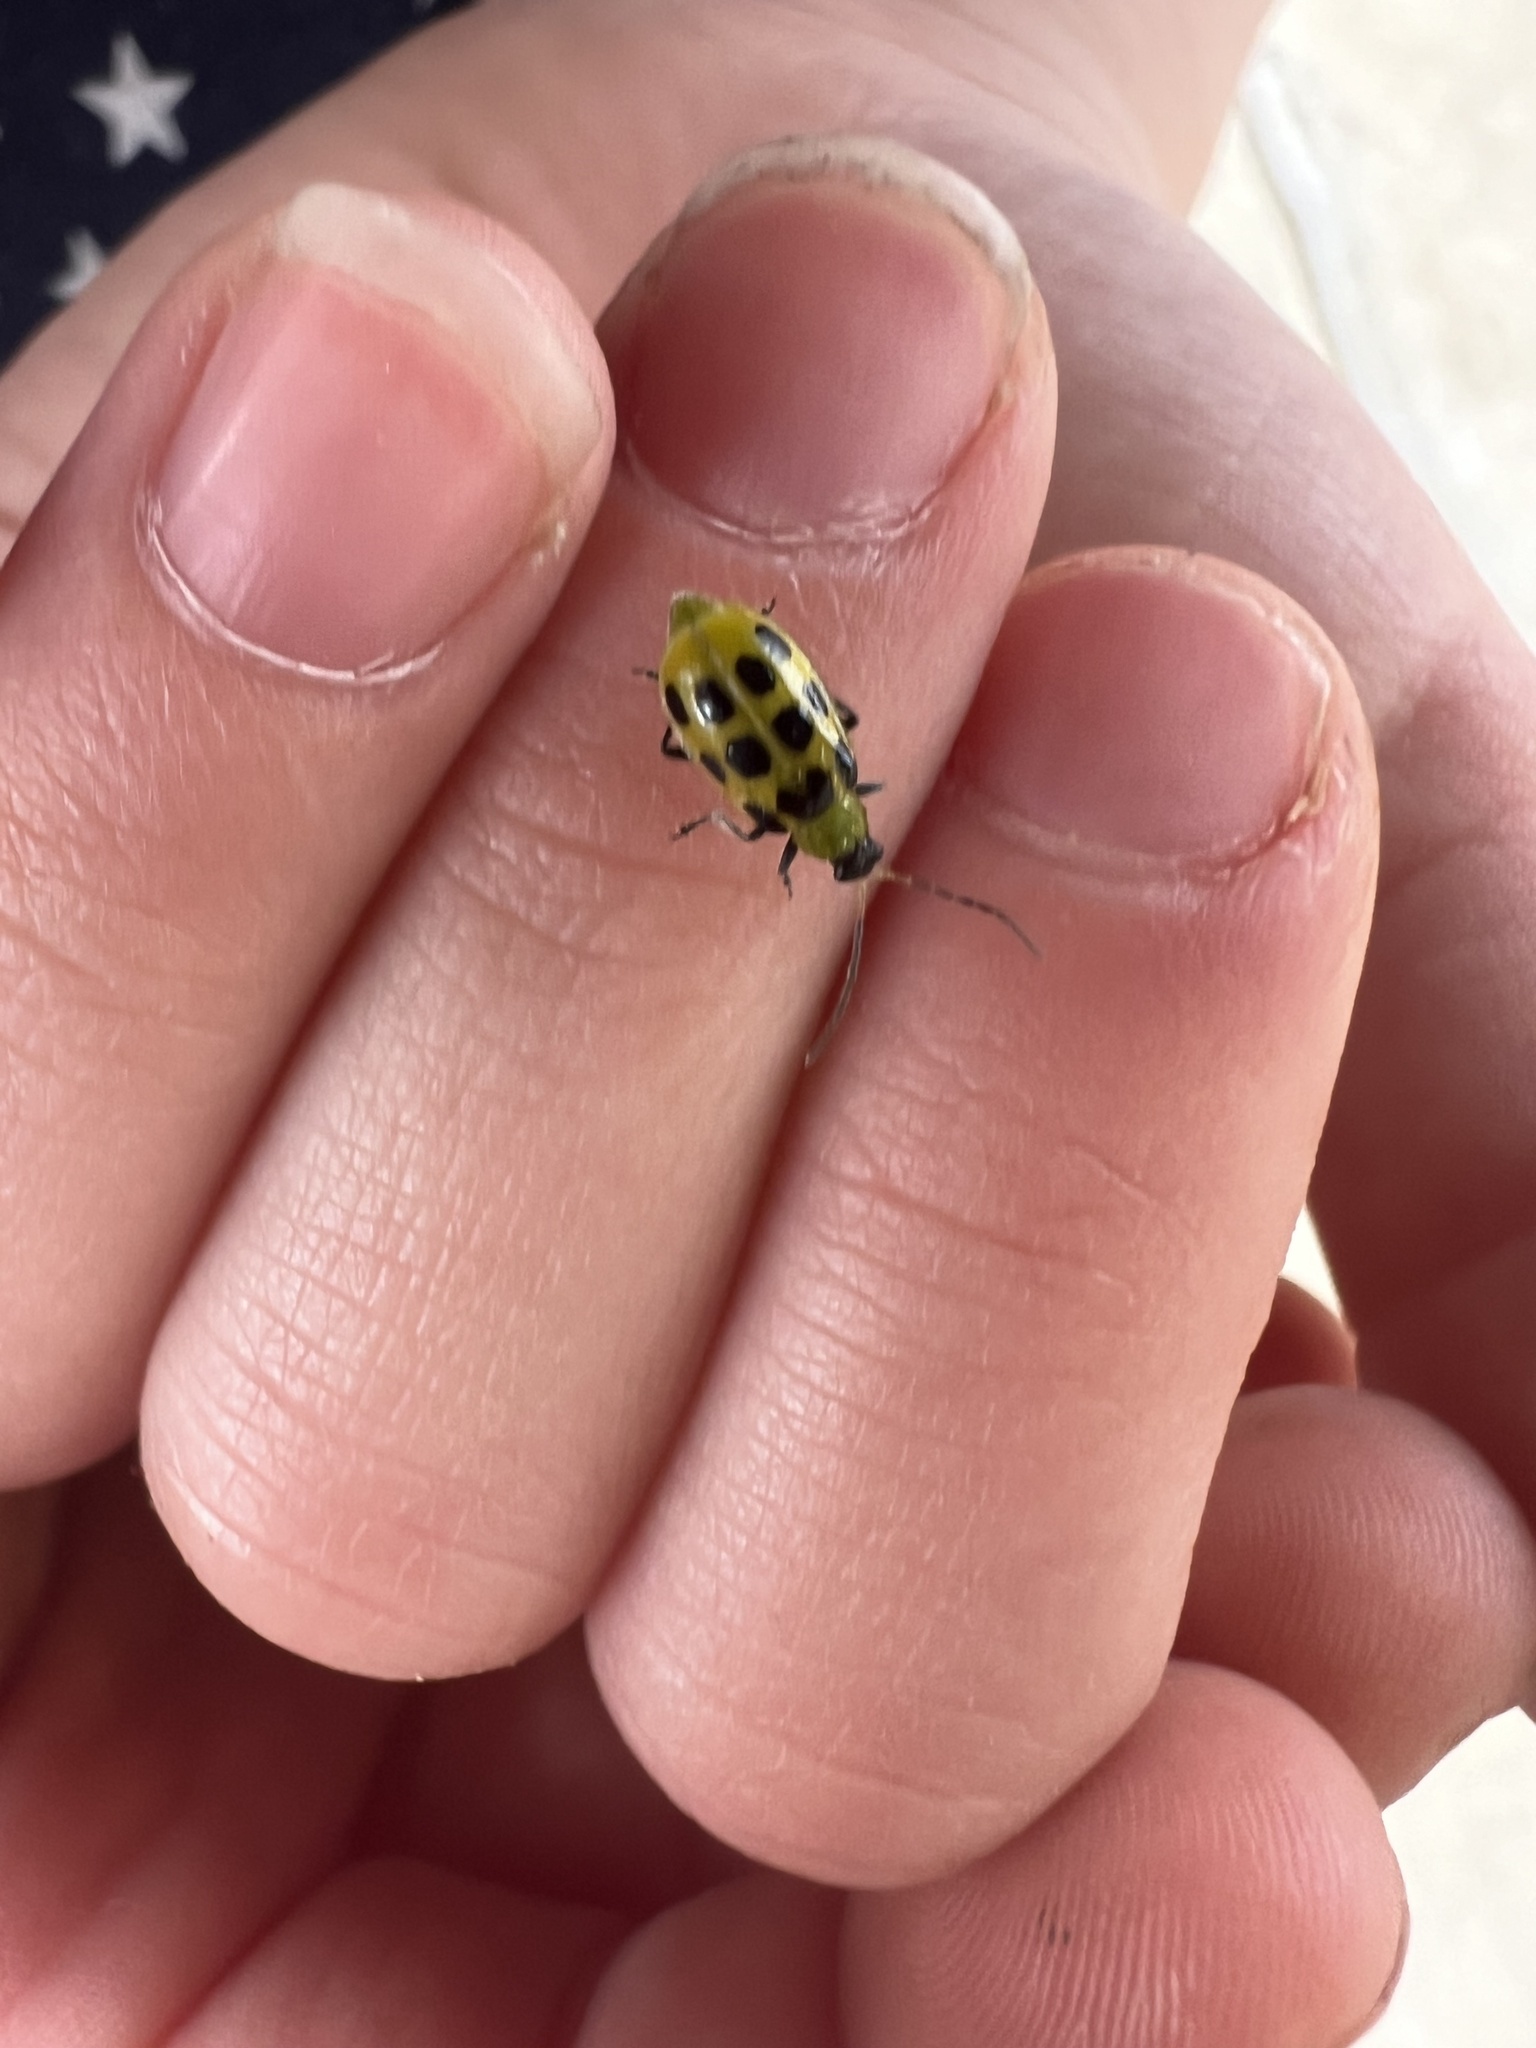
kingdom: Animalia
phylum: Arthropoda
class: Insecta
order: Coleoptera
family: Chrysomelidae
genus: Diabrotica
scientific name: Diabrotica undecimpunctata
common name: Spotted cucumber beetle
